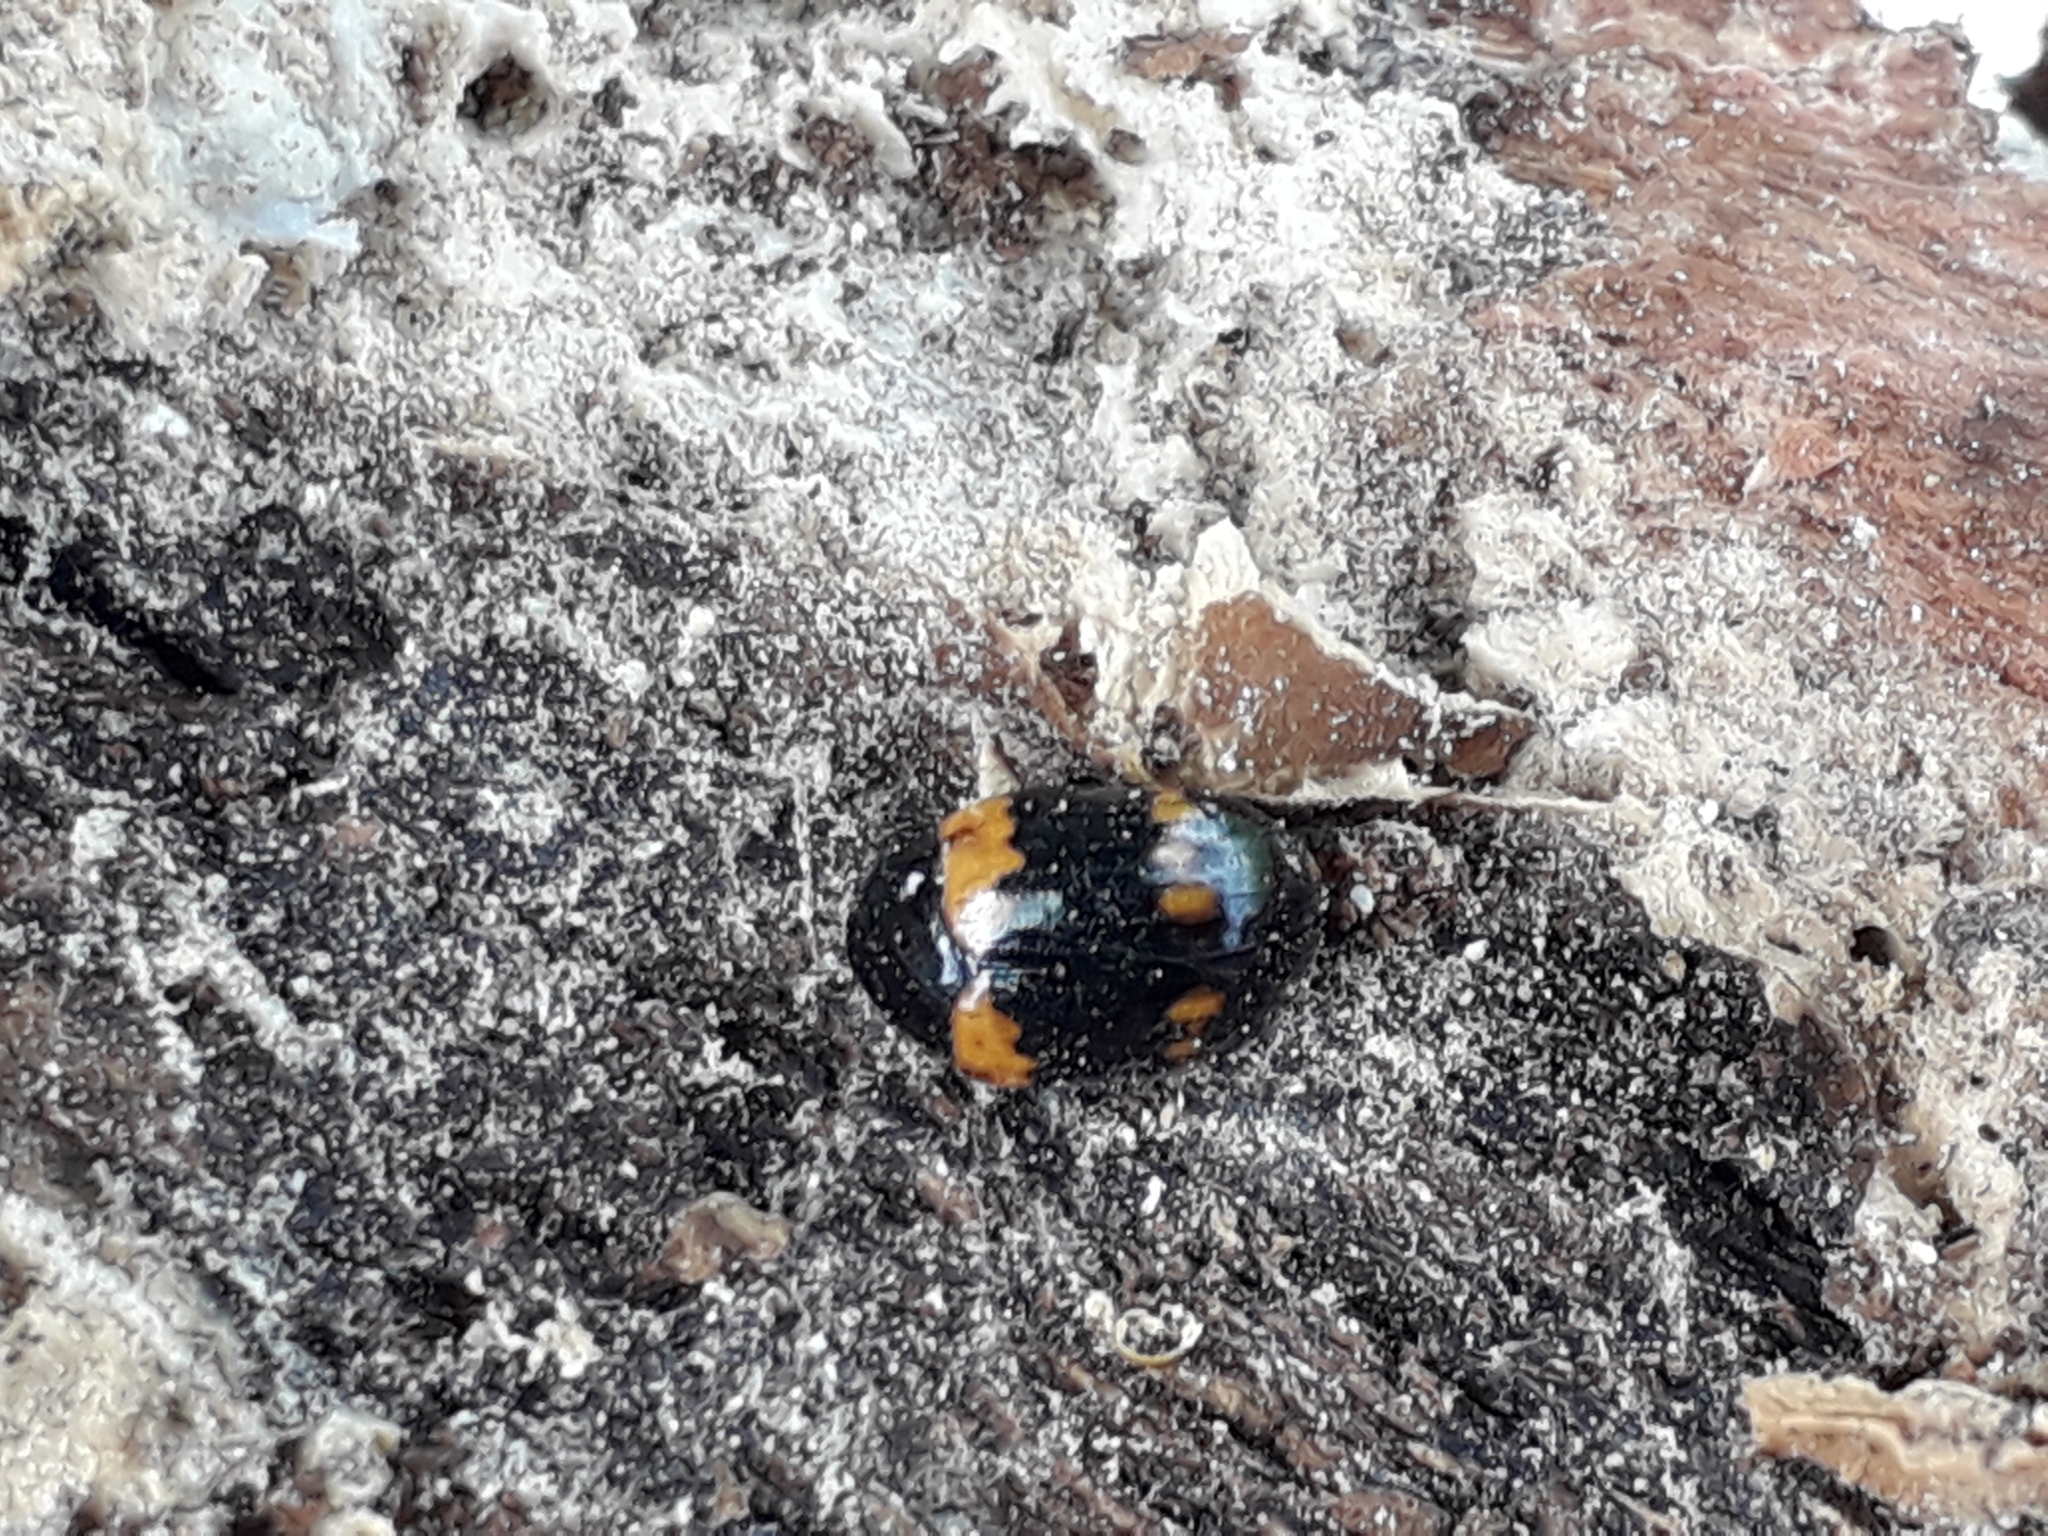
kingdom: Animalia
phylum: Arthropoda
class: Insecta
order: Coleoptera
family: Tenebrionidae
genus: Diaperis
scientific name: Diaperis boleti
